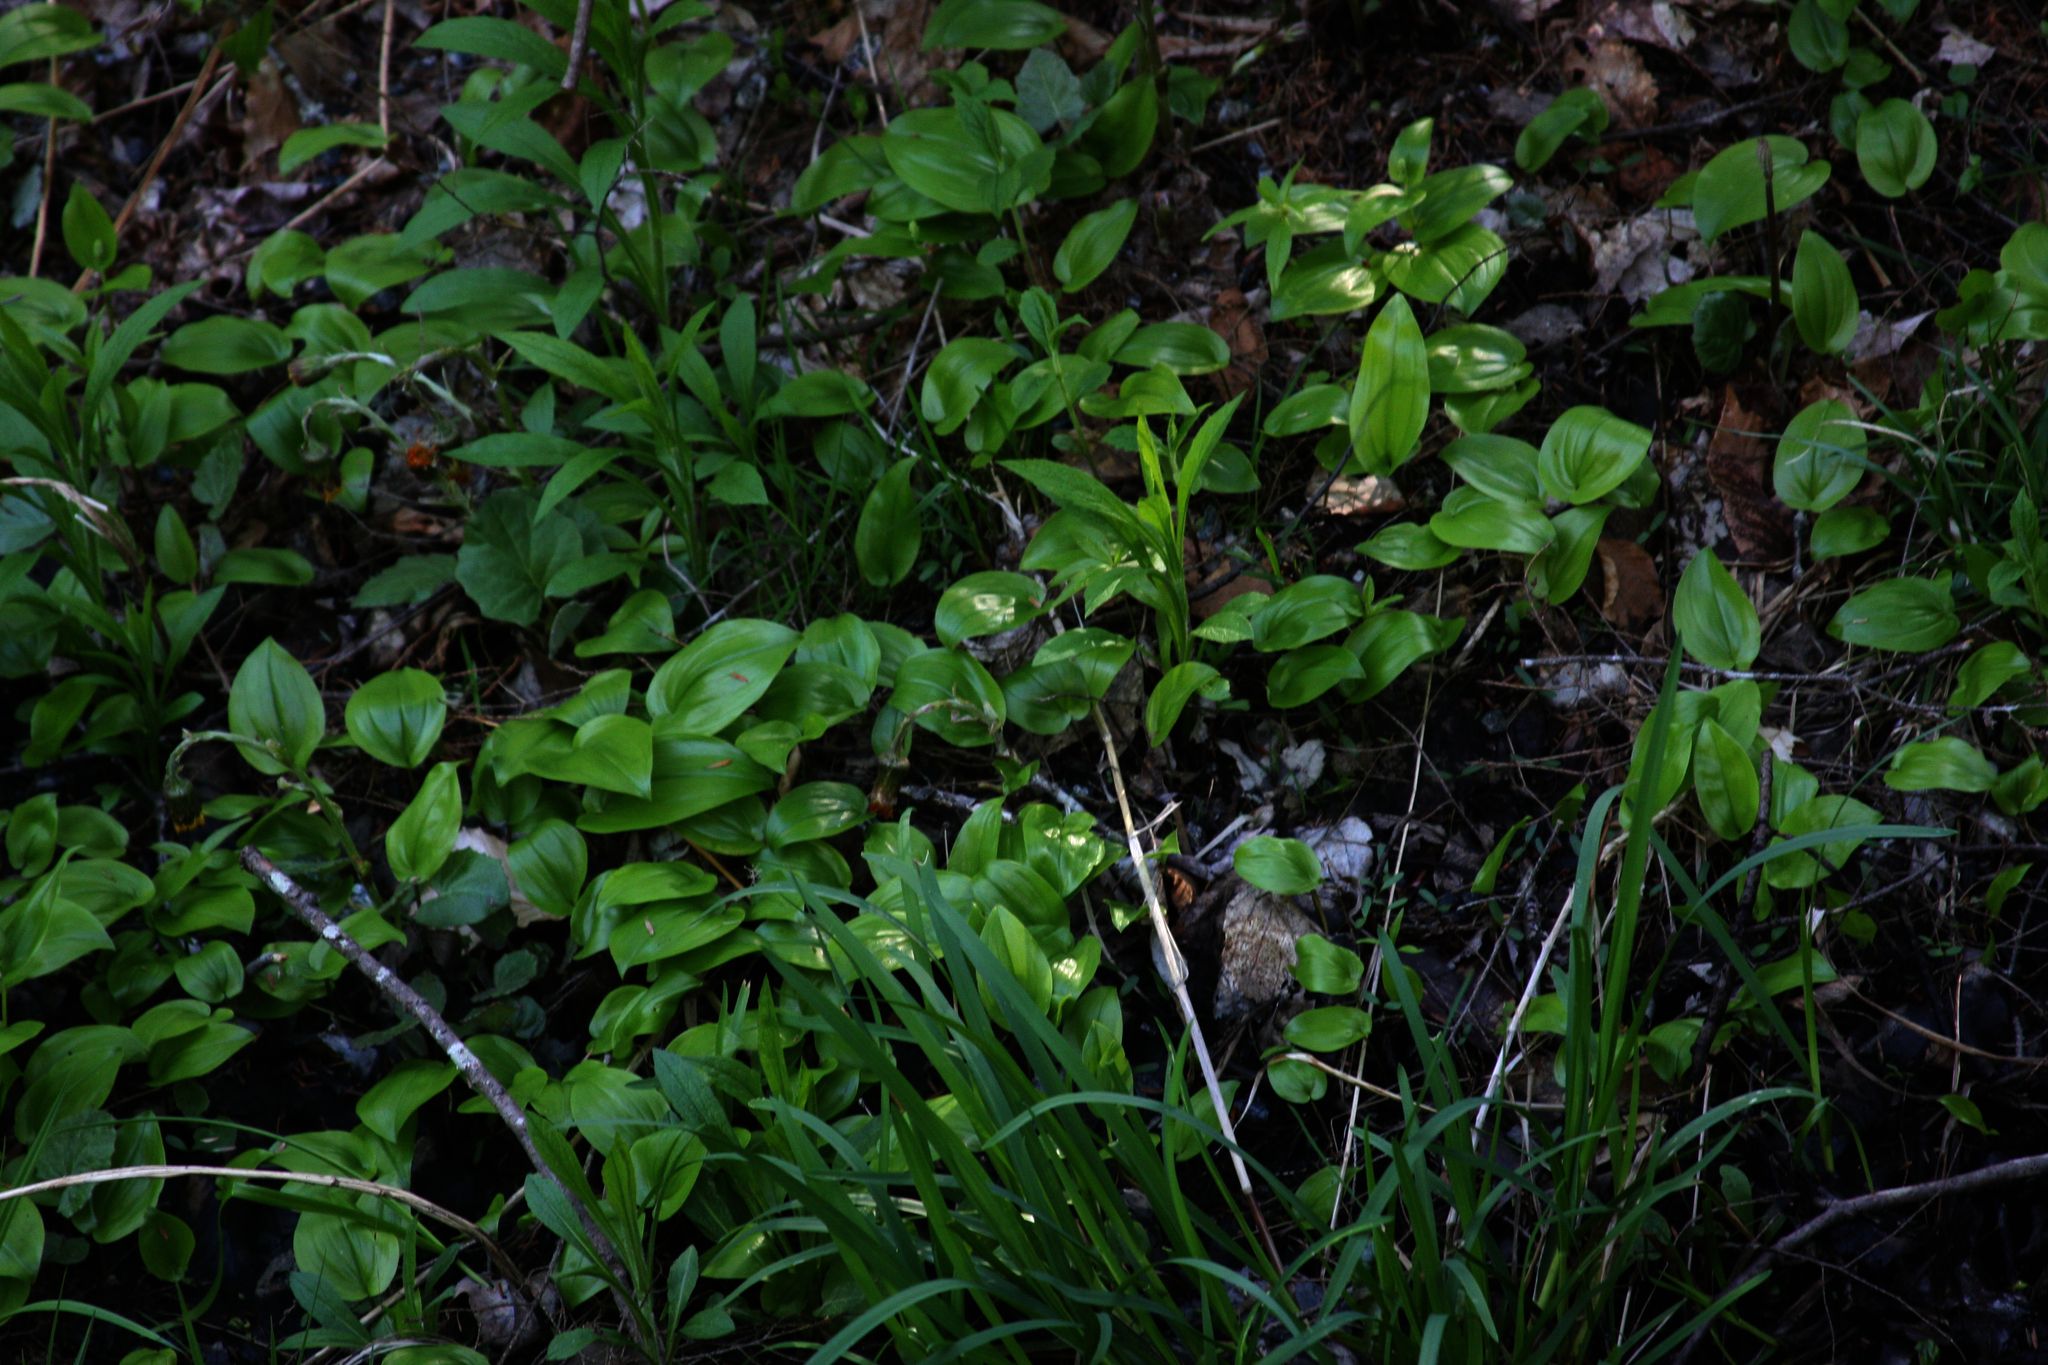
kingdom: Plantae
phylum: Tracheophyta
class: Liliopsida
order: Asparagales
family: Asparagaceae
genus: Maianthemum
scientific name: Maianthemum canadense
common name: False lily-of-the-valley
